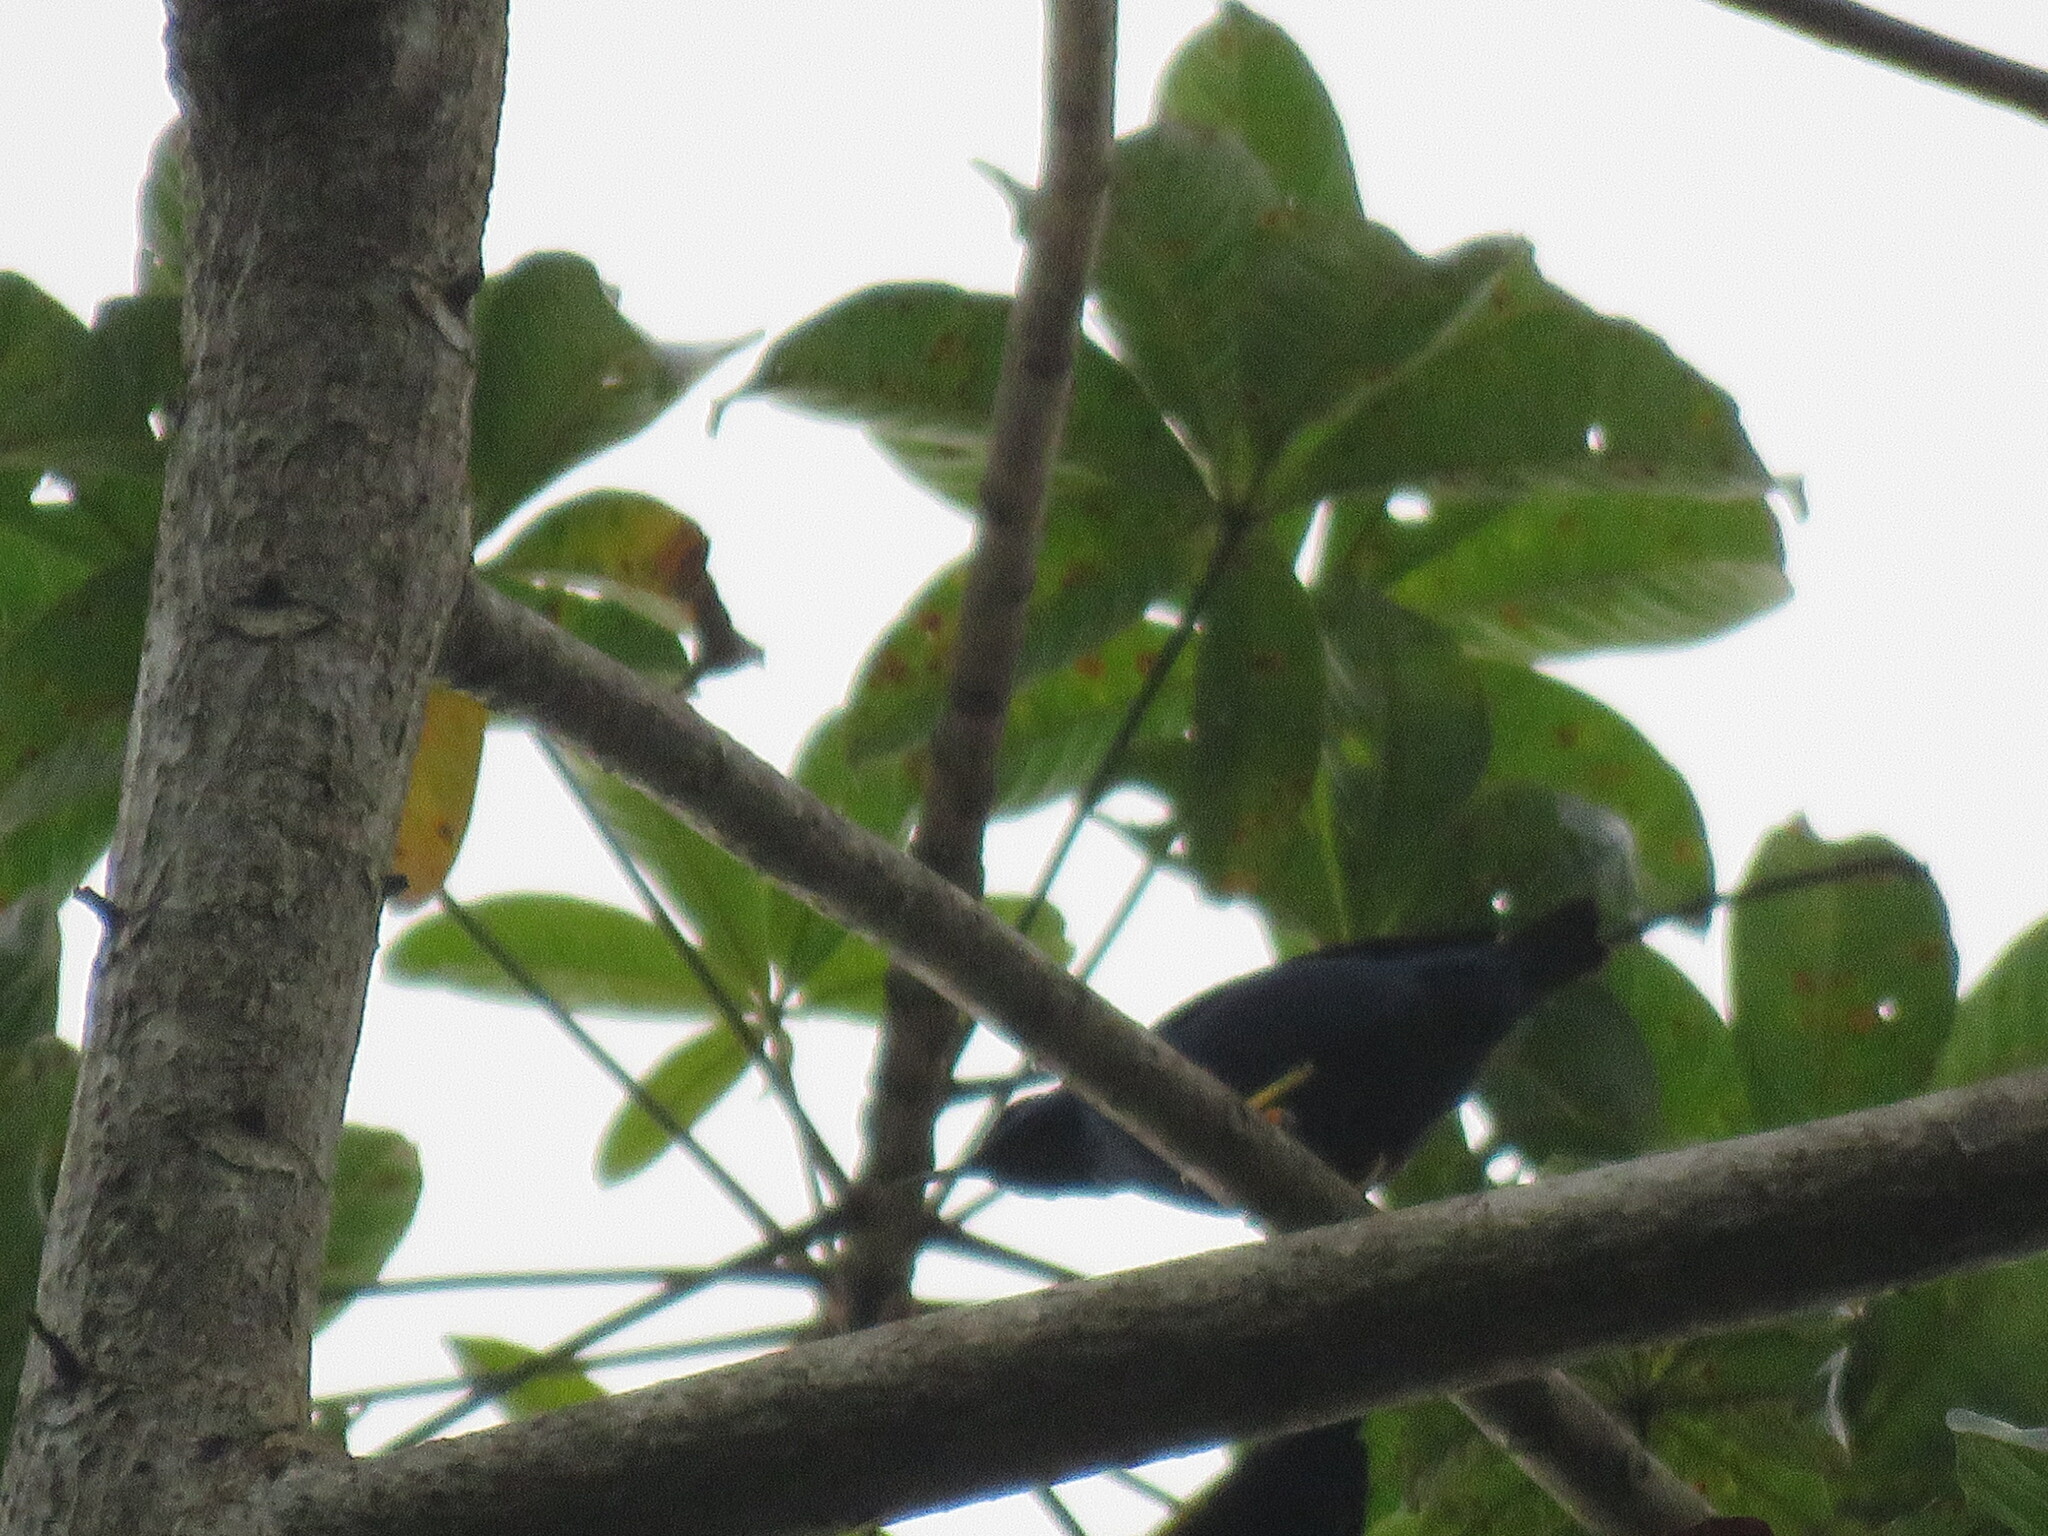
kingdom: Animalia
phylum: Chordata
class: Aves
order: Passeriformes
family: Thraupidae
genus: Cyanerpes
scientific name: Cyanerpes caeruleus
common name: Purple honeycreeper
